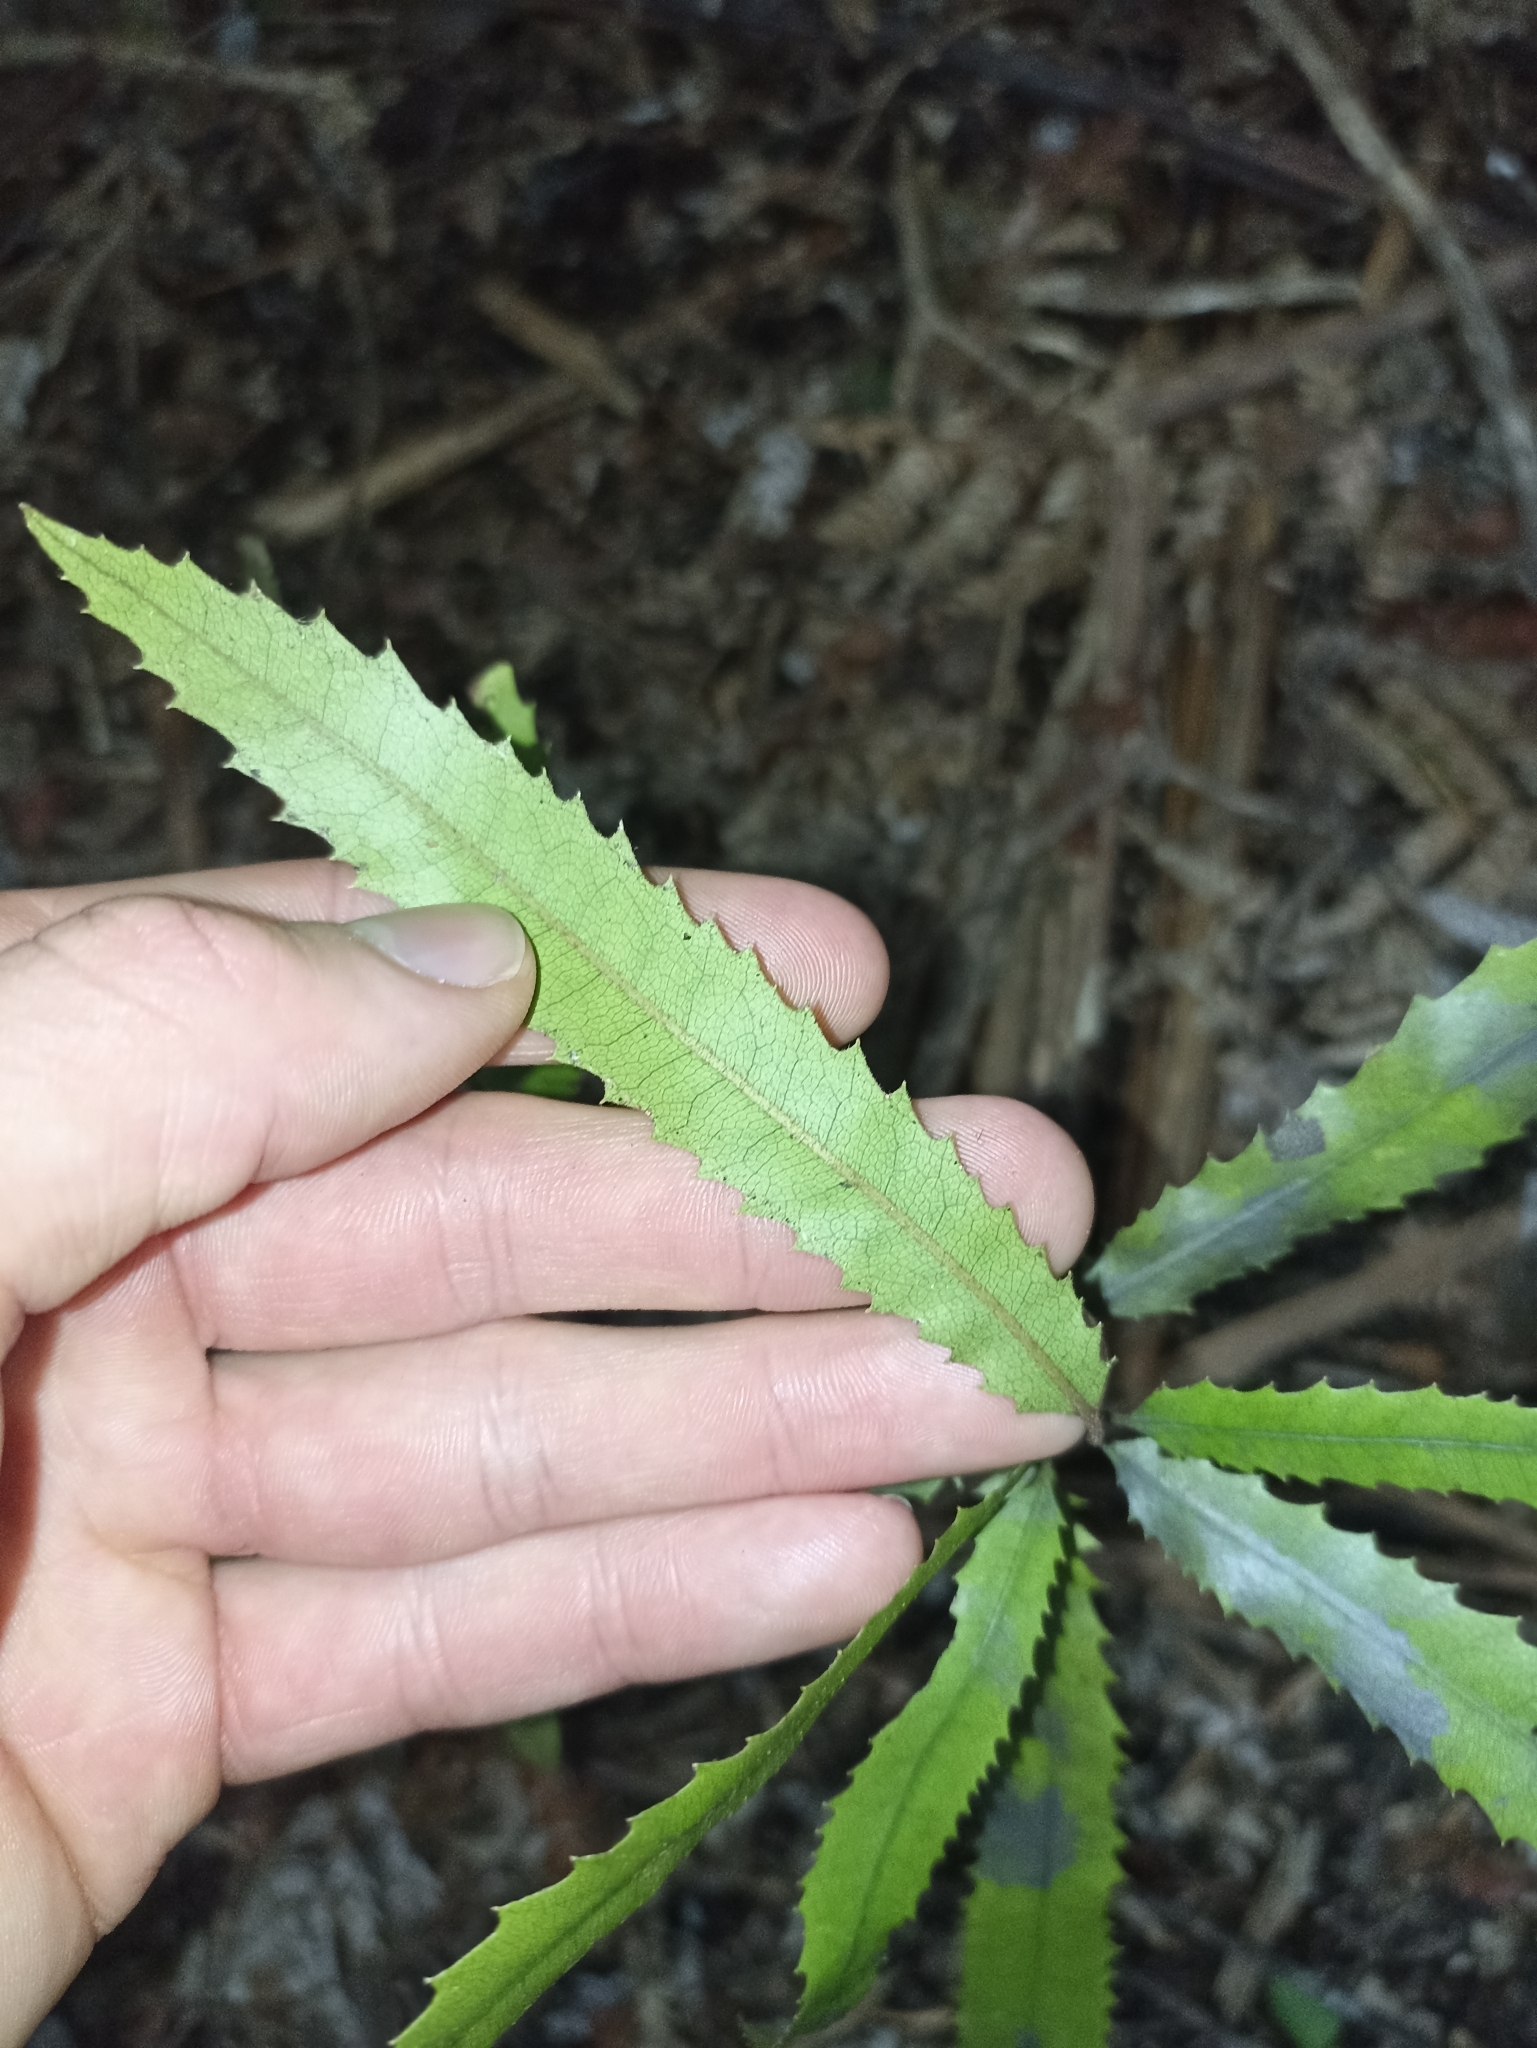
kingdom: Plantae
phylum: Tracheophyta
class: Magnoliopsida
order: Proteales
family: Proteaceae
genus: Knightia
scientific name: Knightia excelsa
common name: New zealand-honeysuckle
